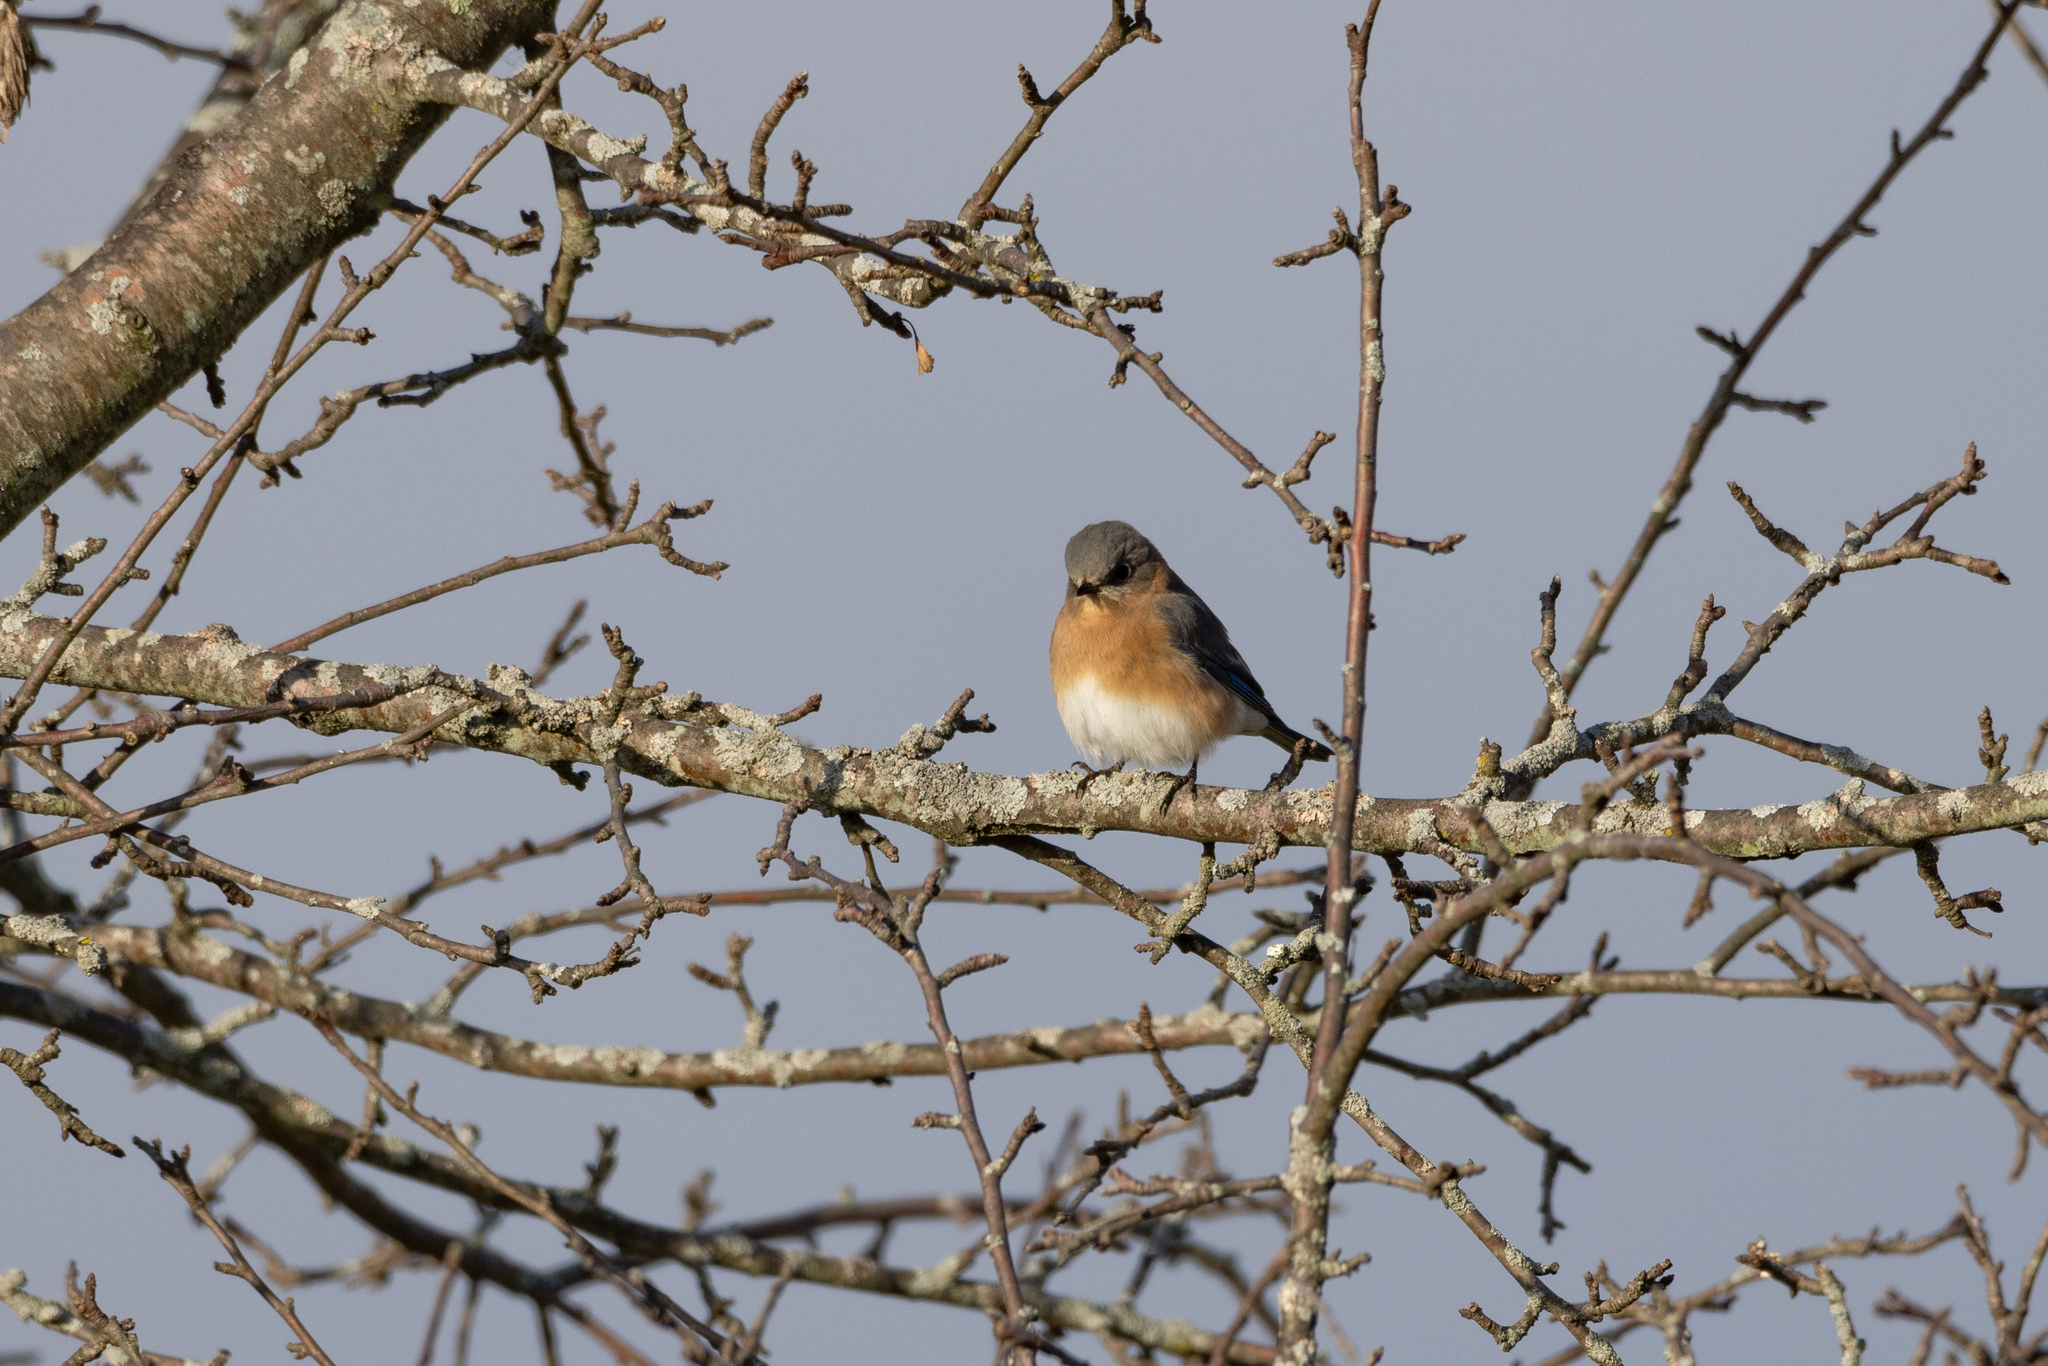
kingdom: Animalia
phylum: Chordata
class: Aves
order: Passeriformes
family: Turdidae
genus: Sialia
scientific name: Sialia sialis
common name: Eastern bluebird
